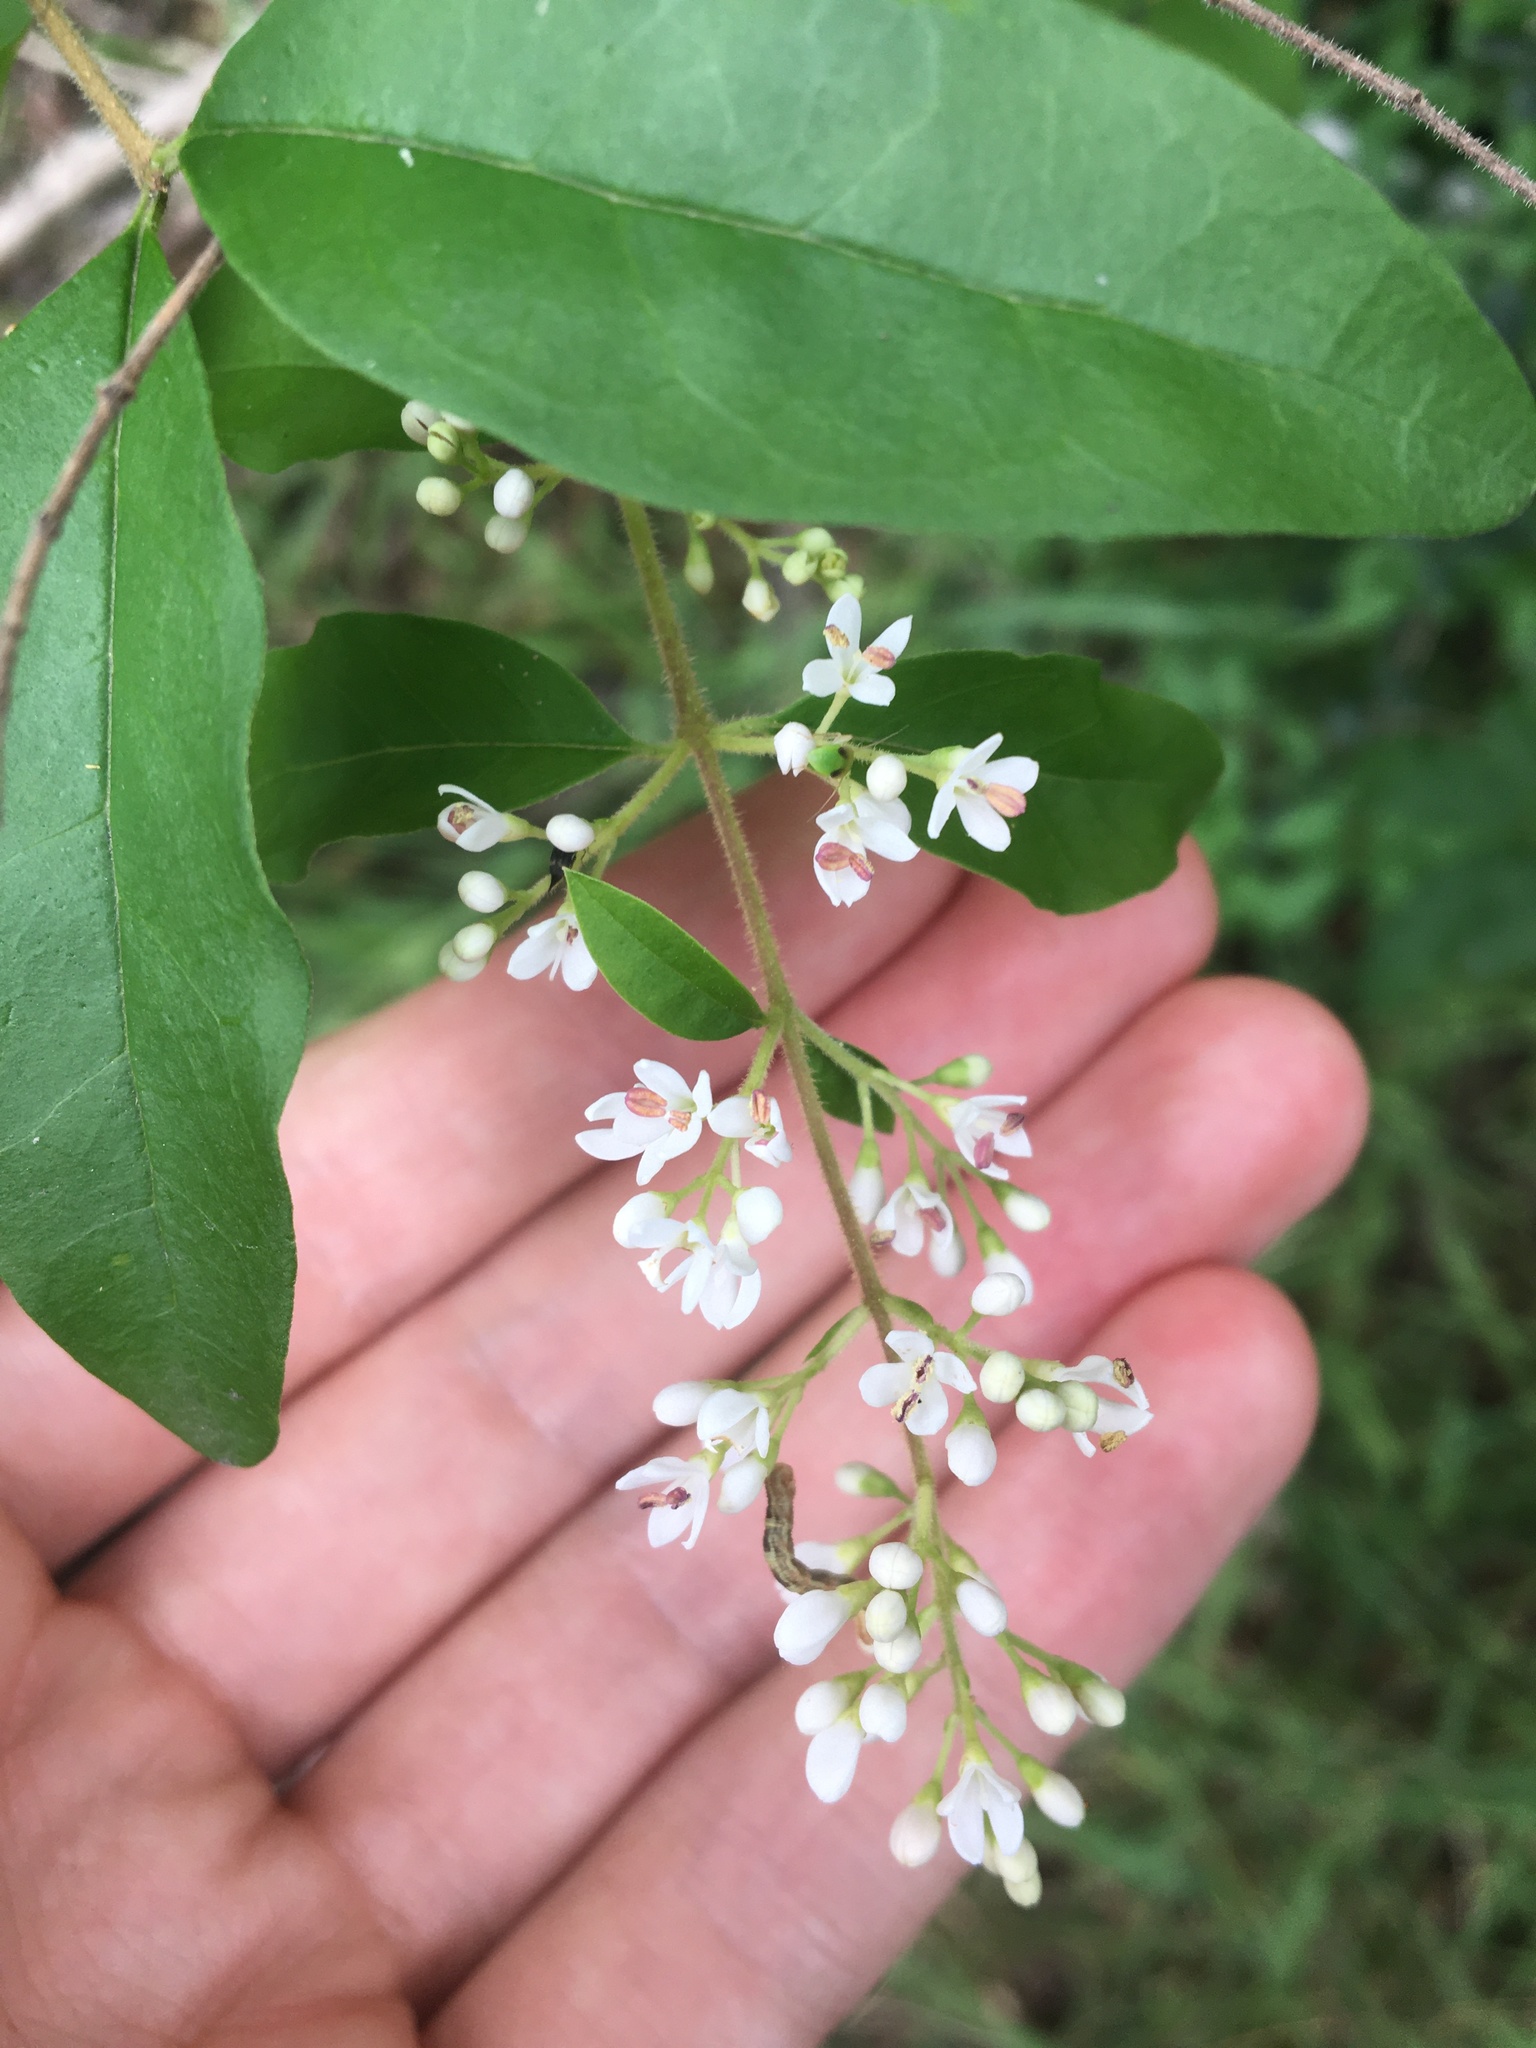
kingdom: Plantae
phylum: Tracheophyta
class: Magnoliopsida
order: Lamiales
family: Oleaceae
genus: Ligustrum
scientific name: Ligustrum sinense
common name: Chinese privet
